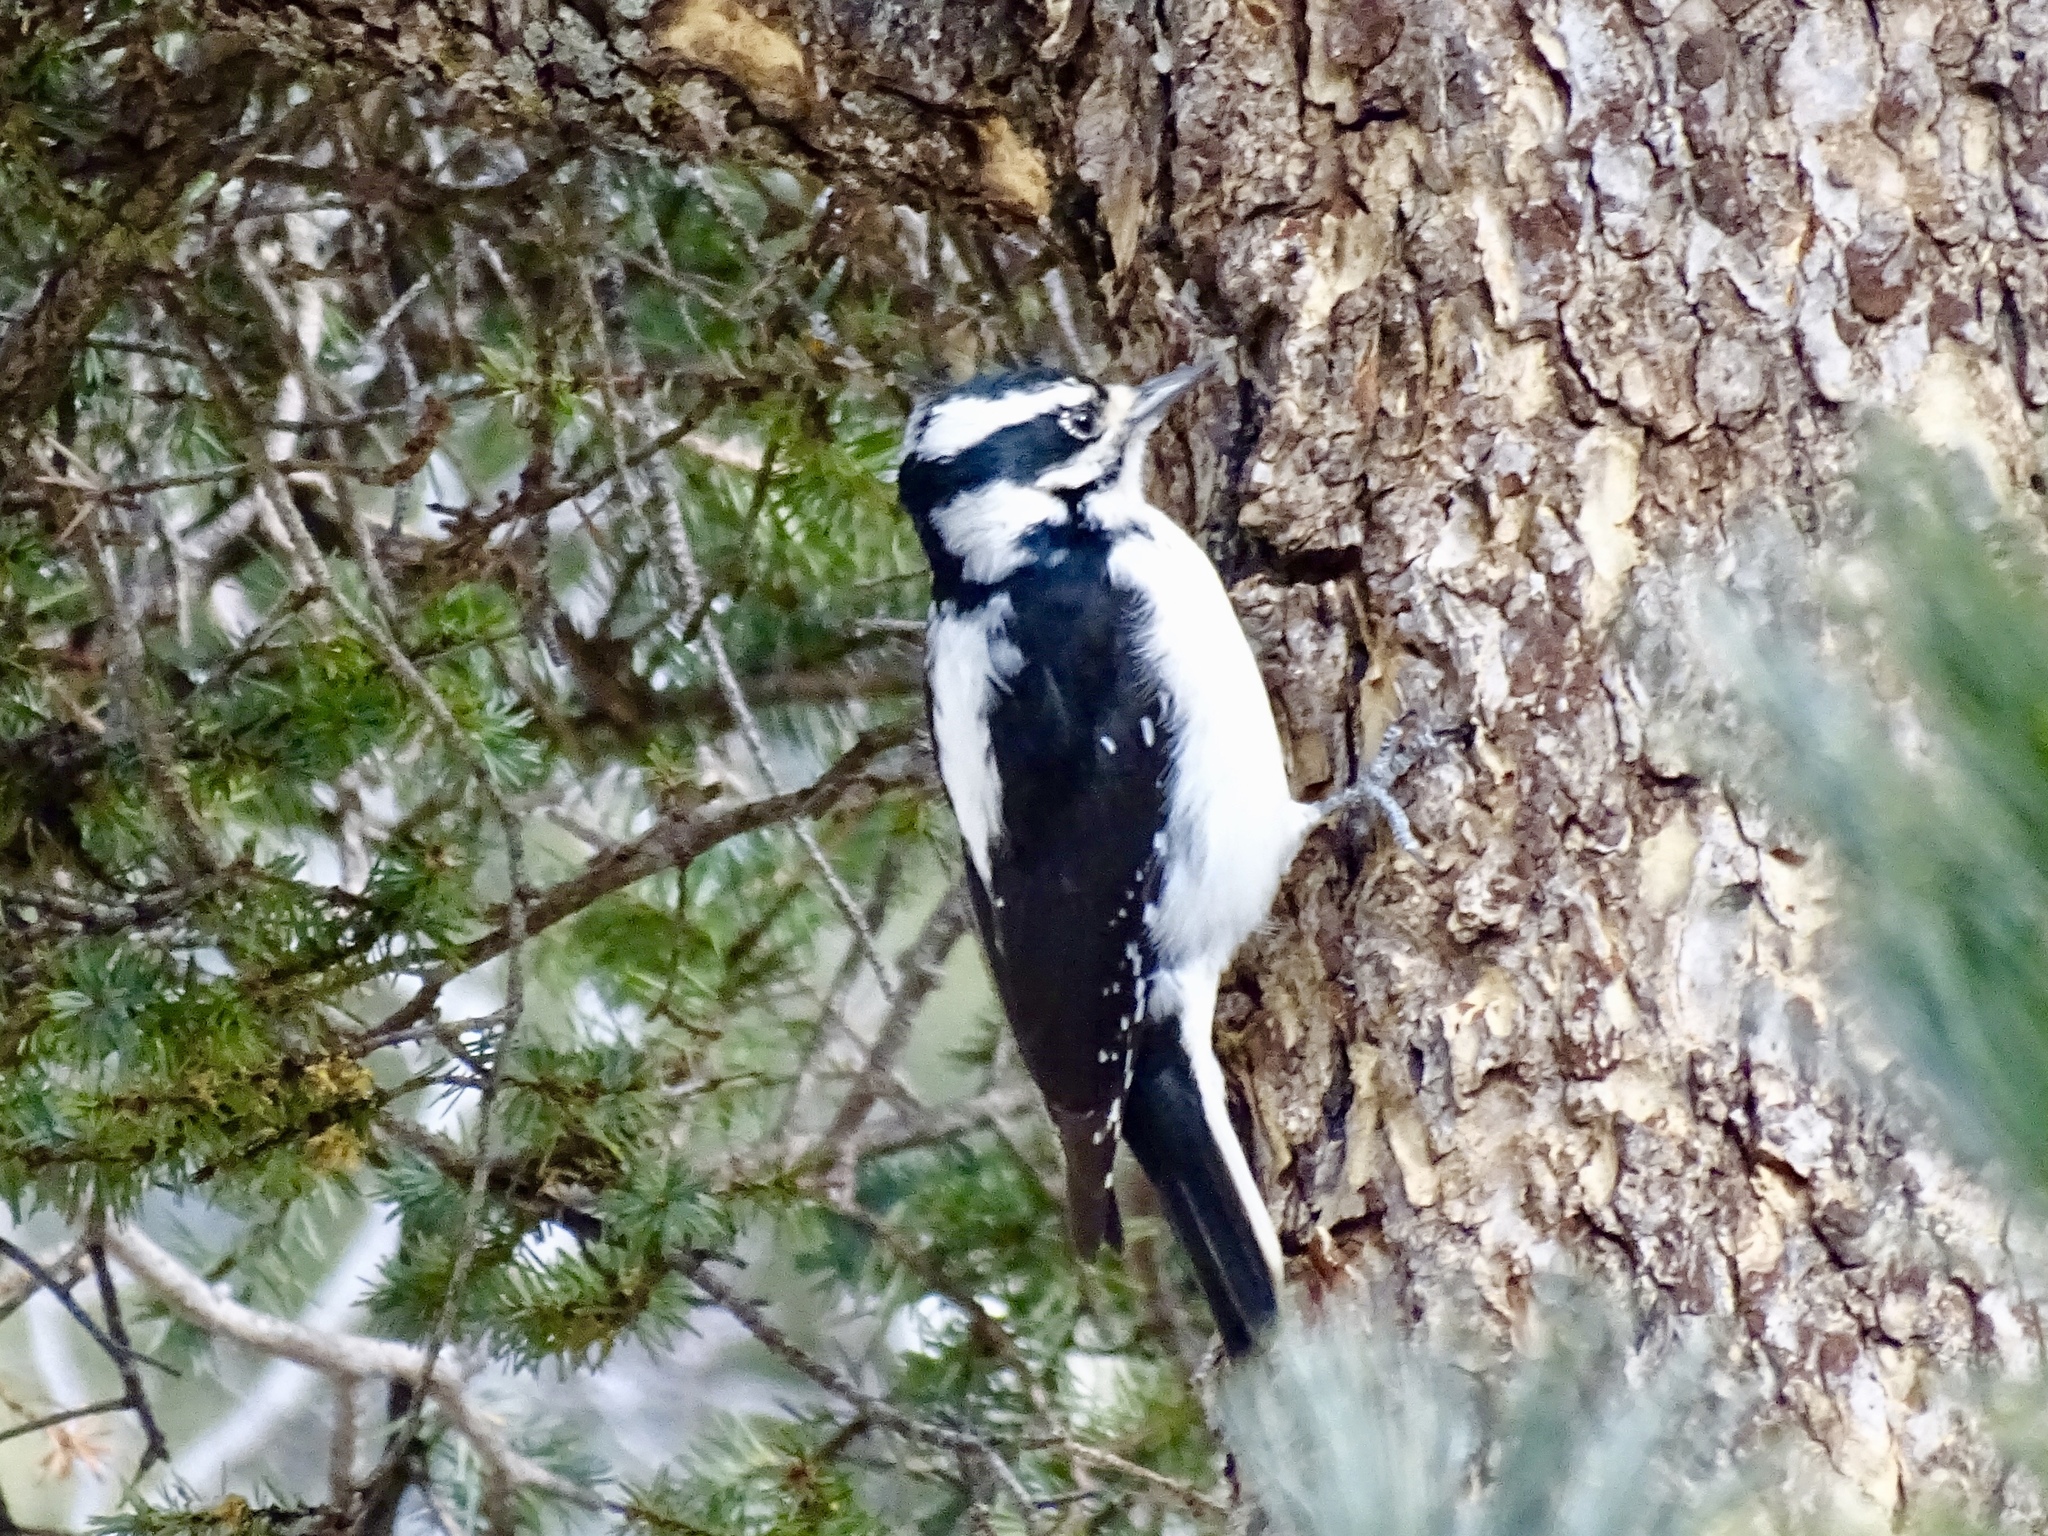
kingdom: Animalia
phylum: Chordata
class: Aves
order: Piciformes
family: Picidae
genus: Leuconotopicus
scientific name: Leuconotopicus villosus
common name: Hairy woodpecker
